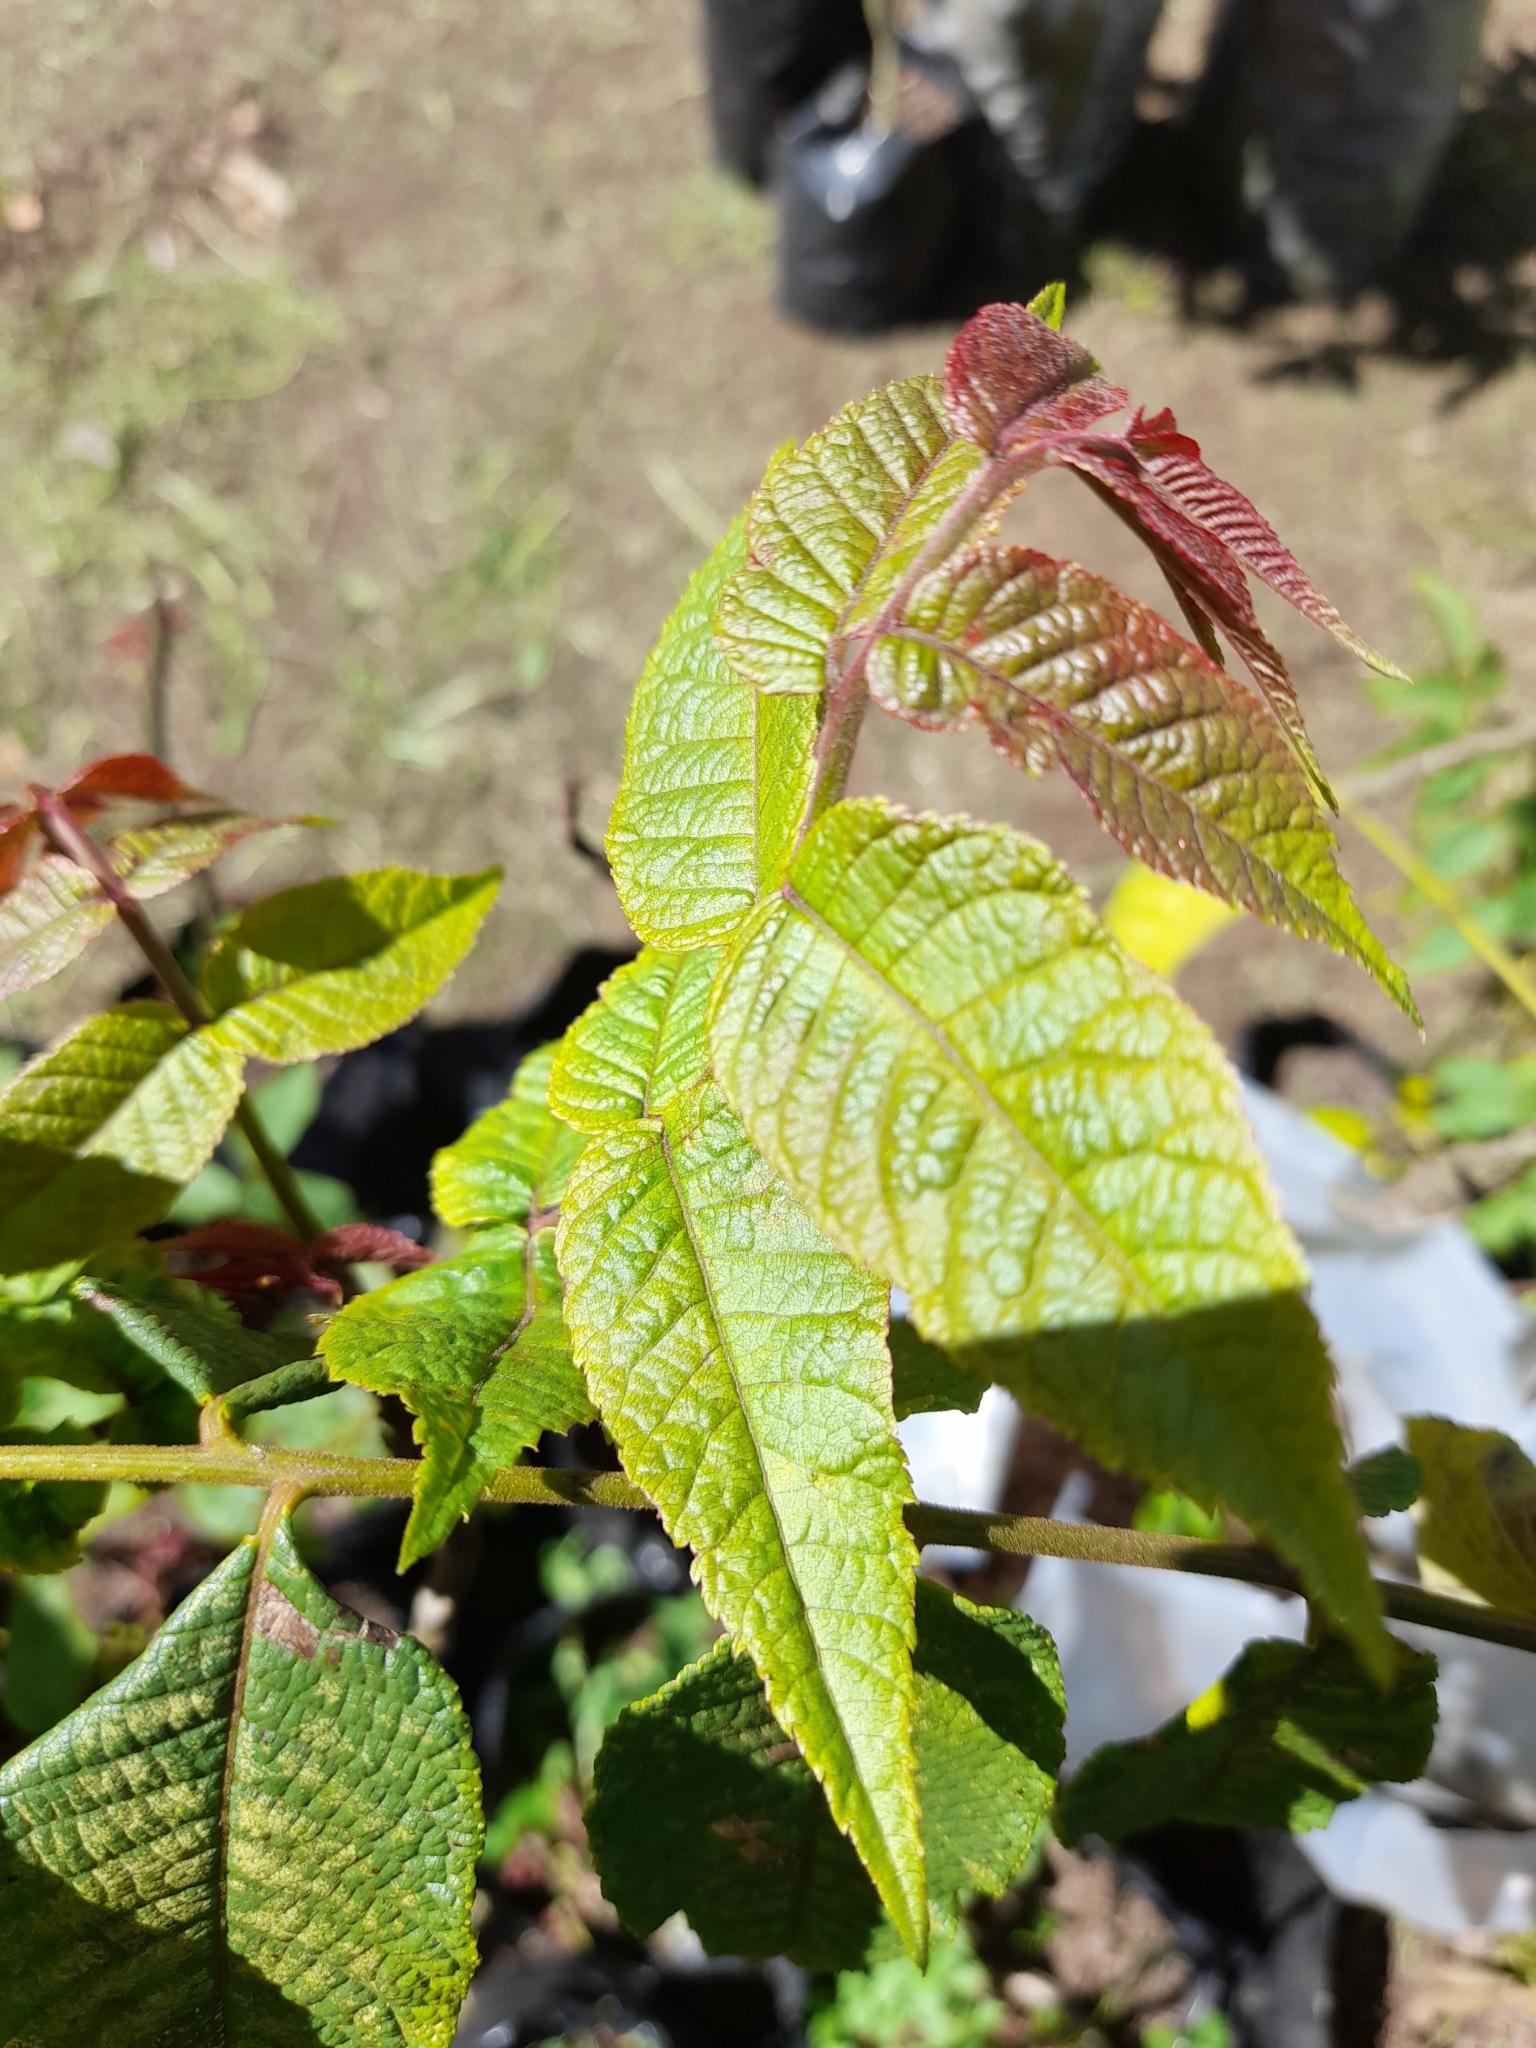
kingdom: Plantae
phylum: Tracheophyta
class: Magnoliopsida
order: Fagales
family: Juglandaceae
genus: Juglans
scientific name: Juglans neotropica
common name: Andean walnut
